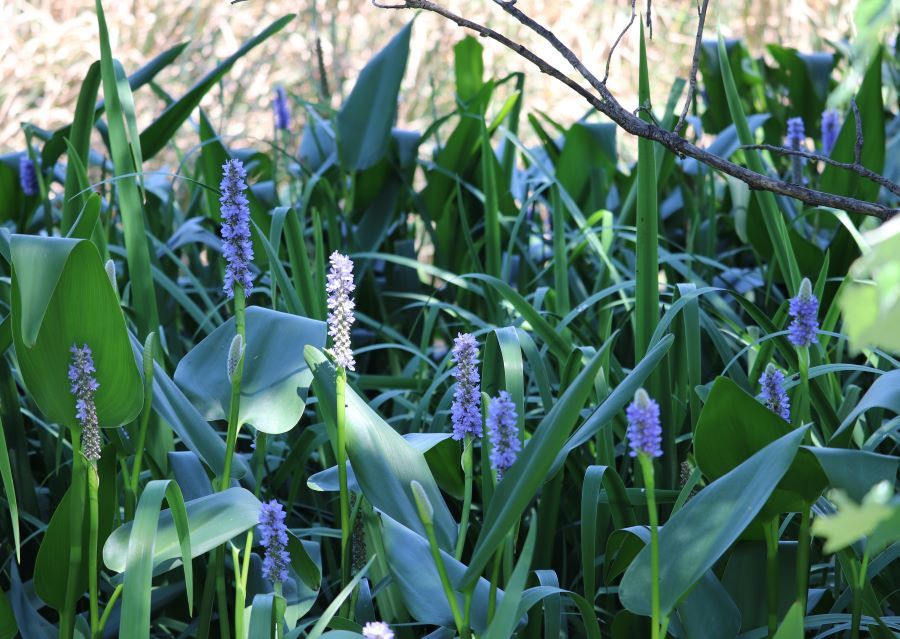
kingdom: Plantae
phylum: Tracheophyta
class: Liliopsida
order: Commelinales
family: Pontederiaceae
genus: Pontederia
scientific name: Pontederia cordata
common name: Pickerelweed
